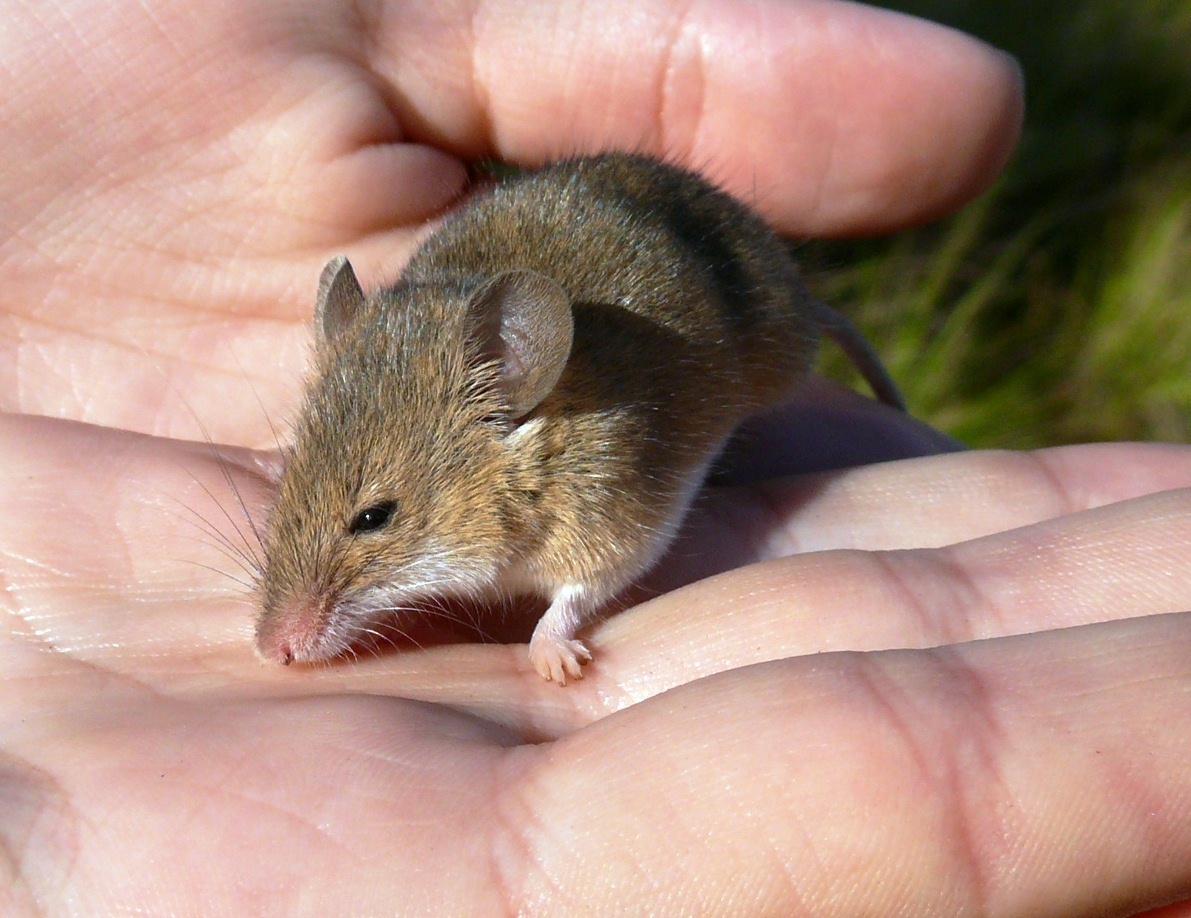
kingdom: Animalia
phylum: Chordata
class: Mammalia
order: Rodentia
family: Muridae
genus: Mus
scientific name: Mus minutoides
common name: Southern african pygmy mouse
